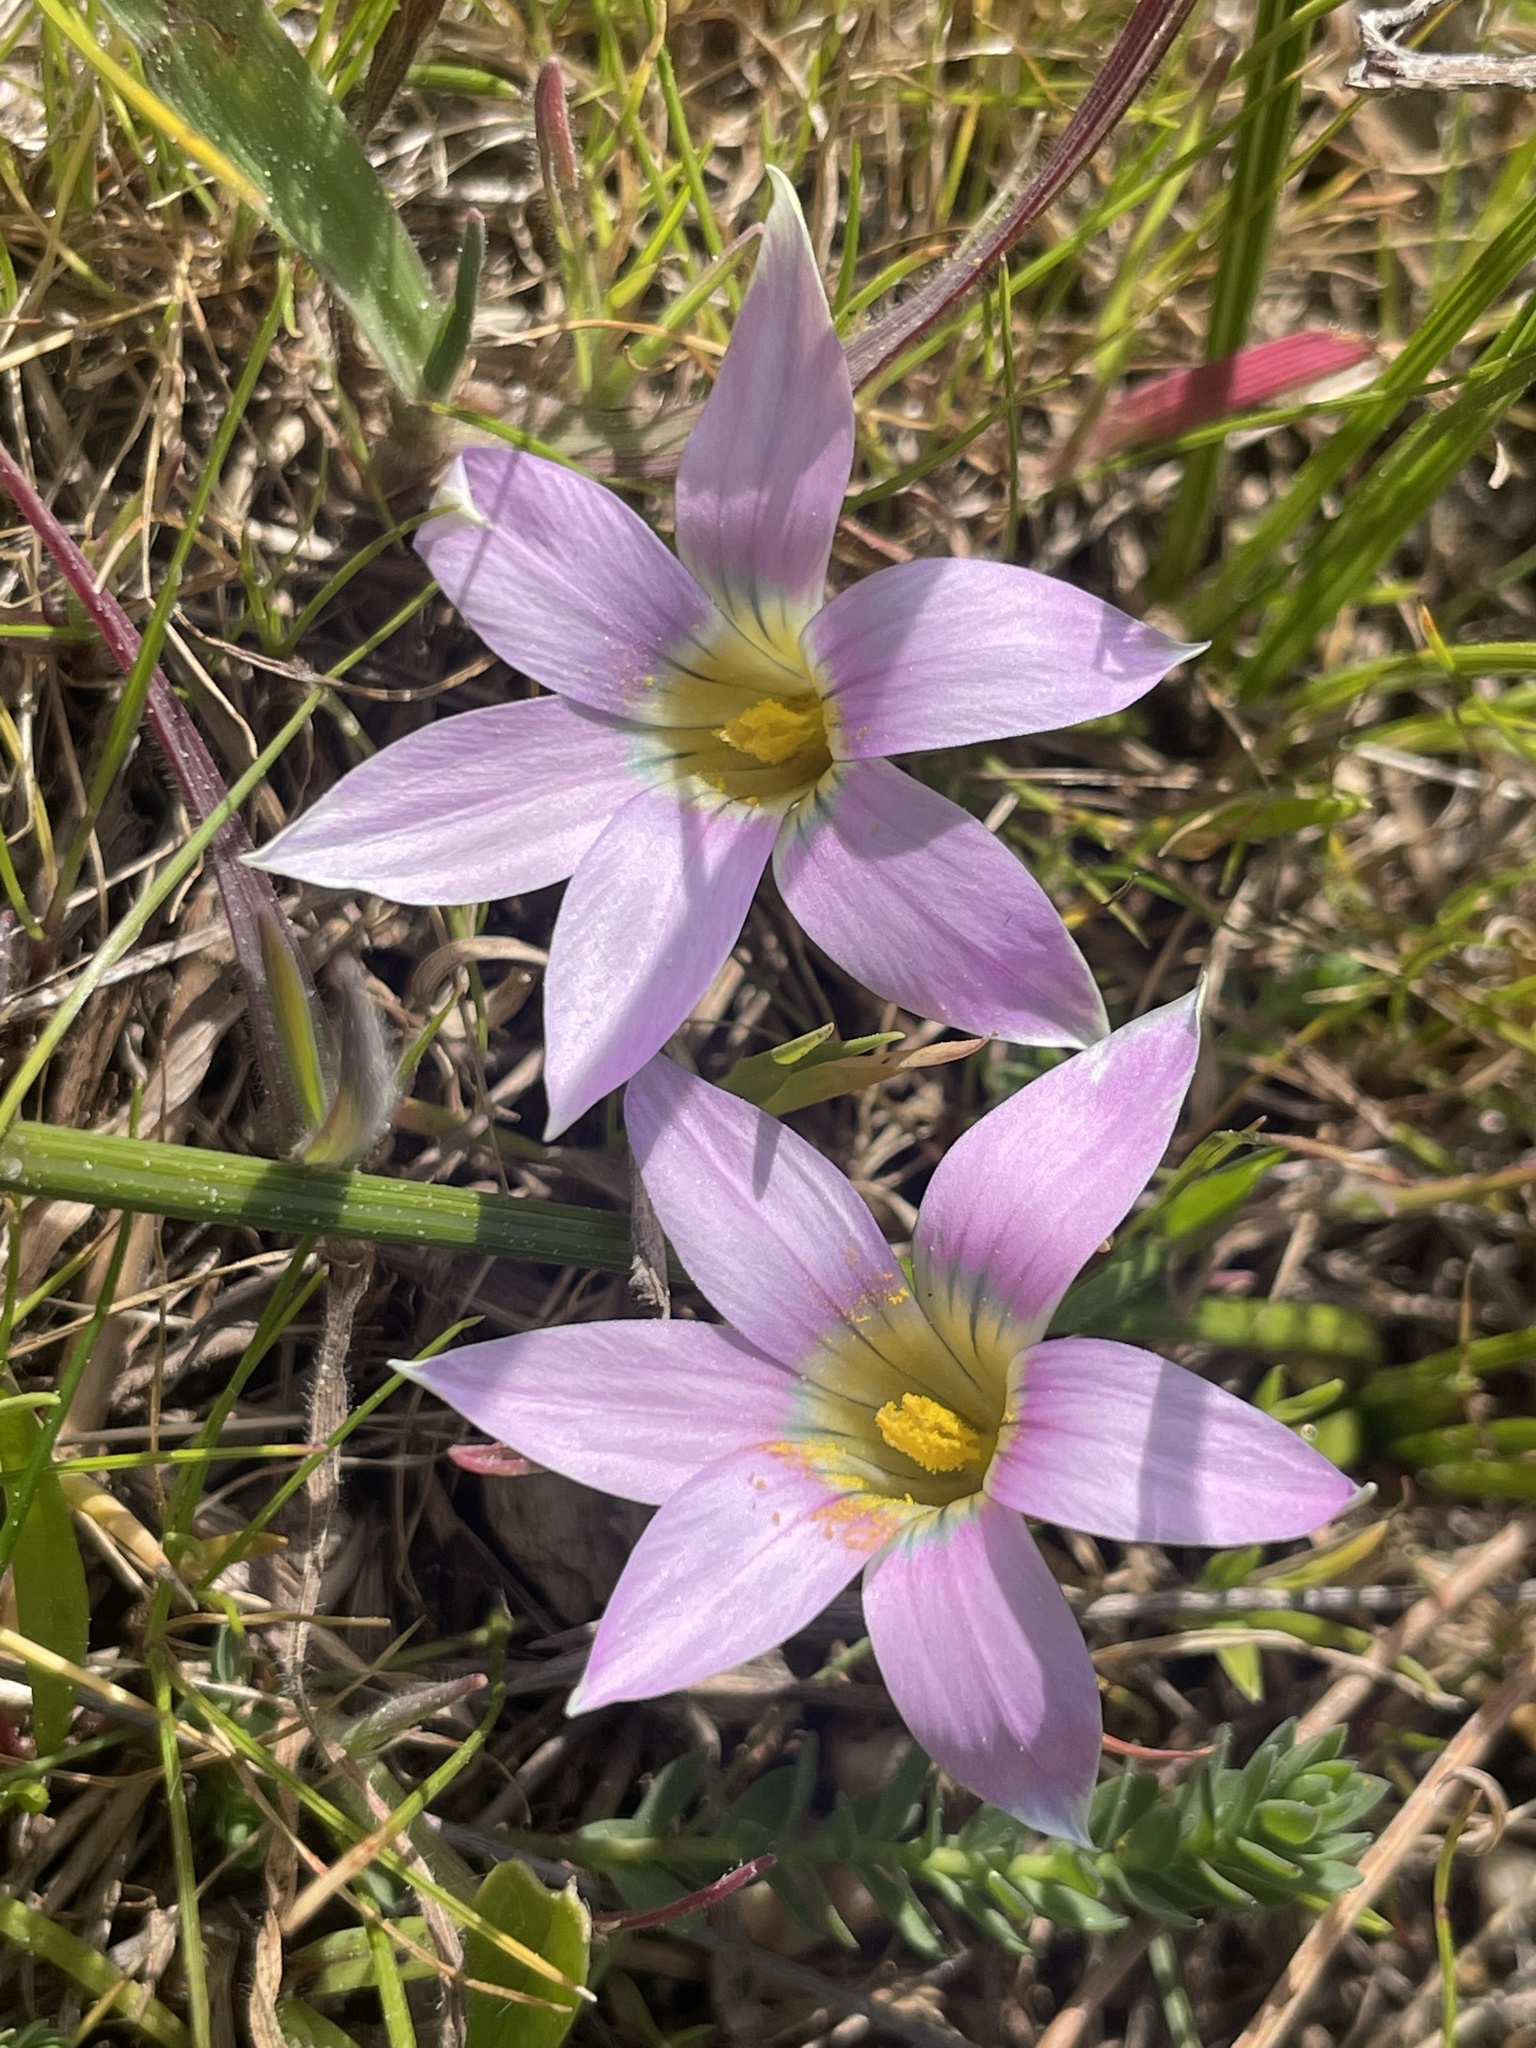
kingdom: Plantae
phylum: Tracheophyta
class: Liliopsida
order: Asparagales
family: Iridaceae
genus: Romulea
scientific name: Romulea rosea
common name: Oniongrass
